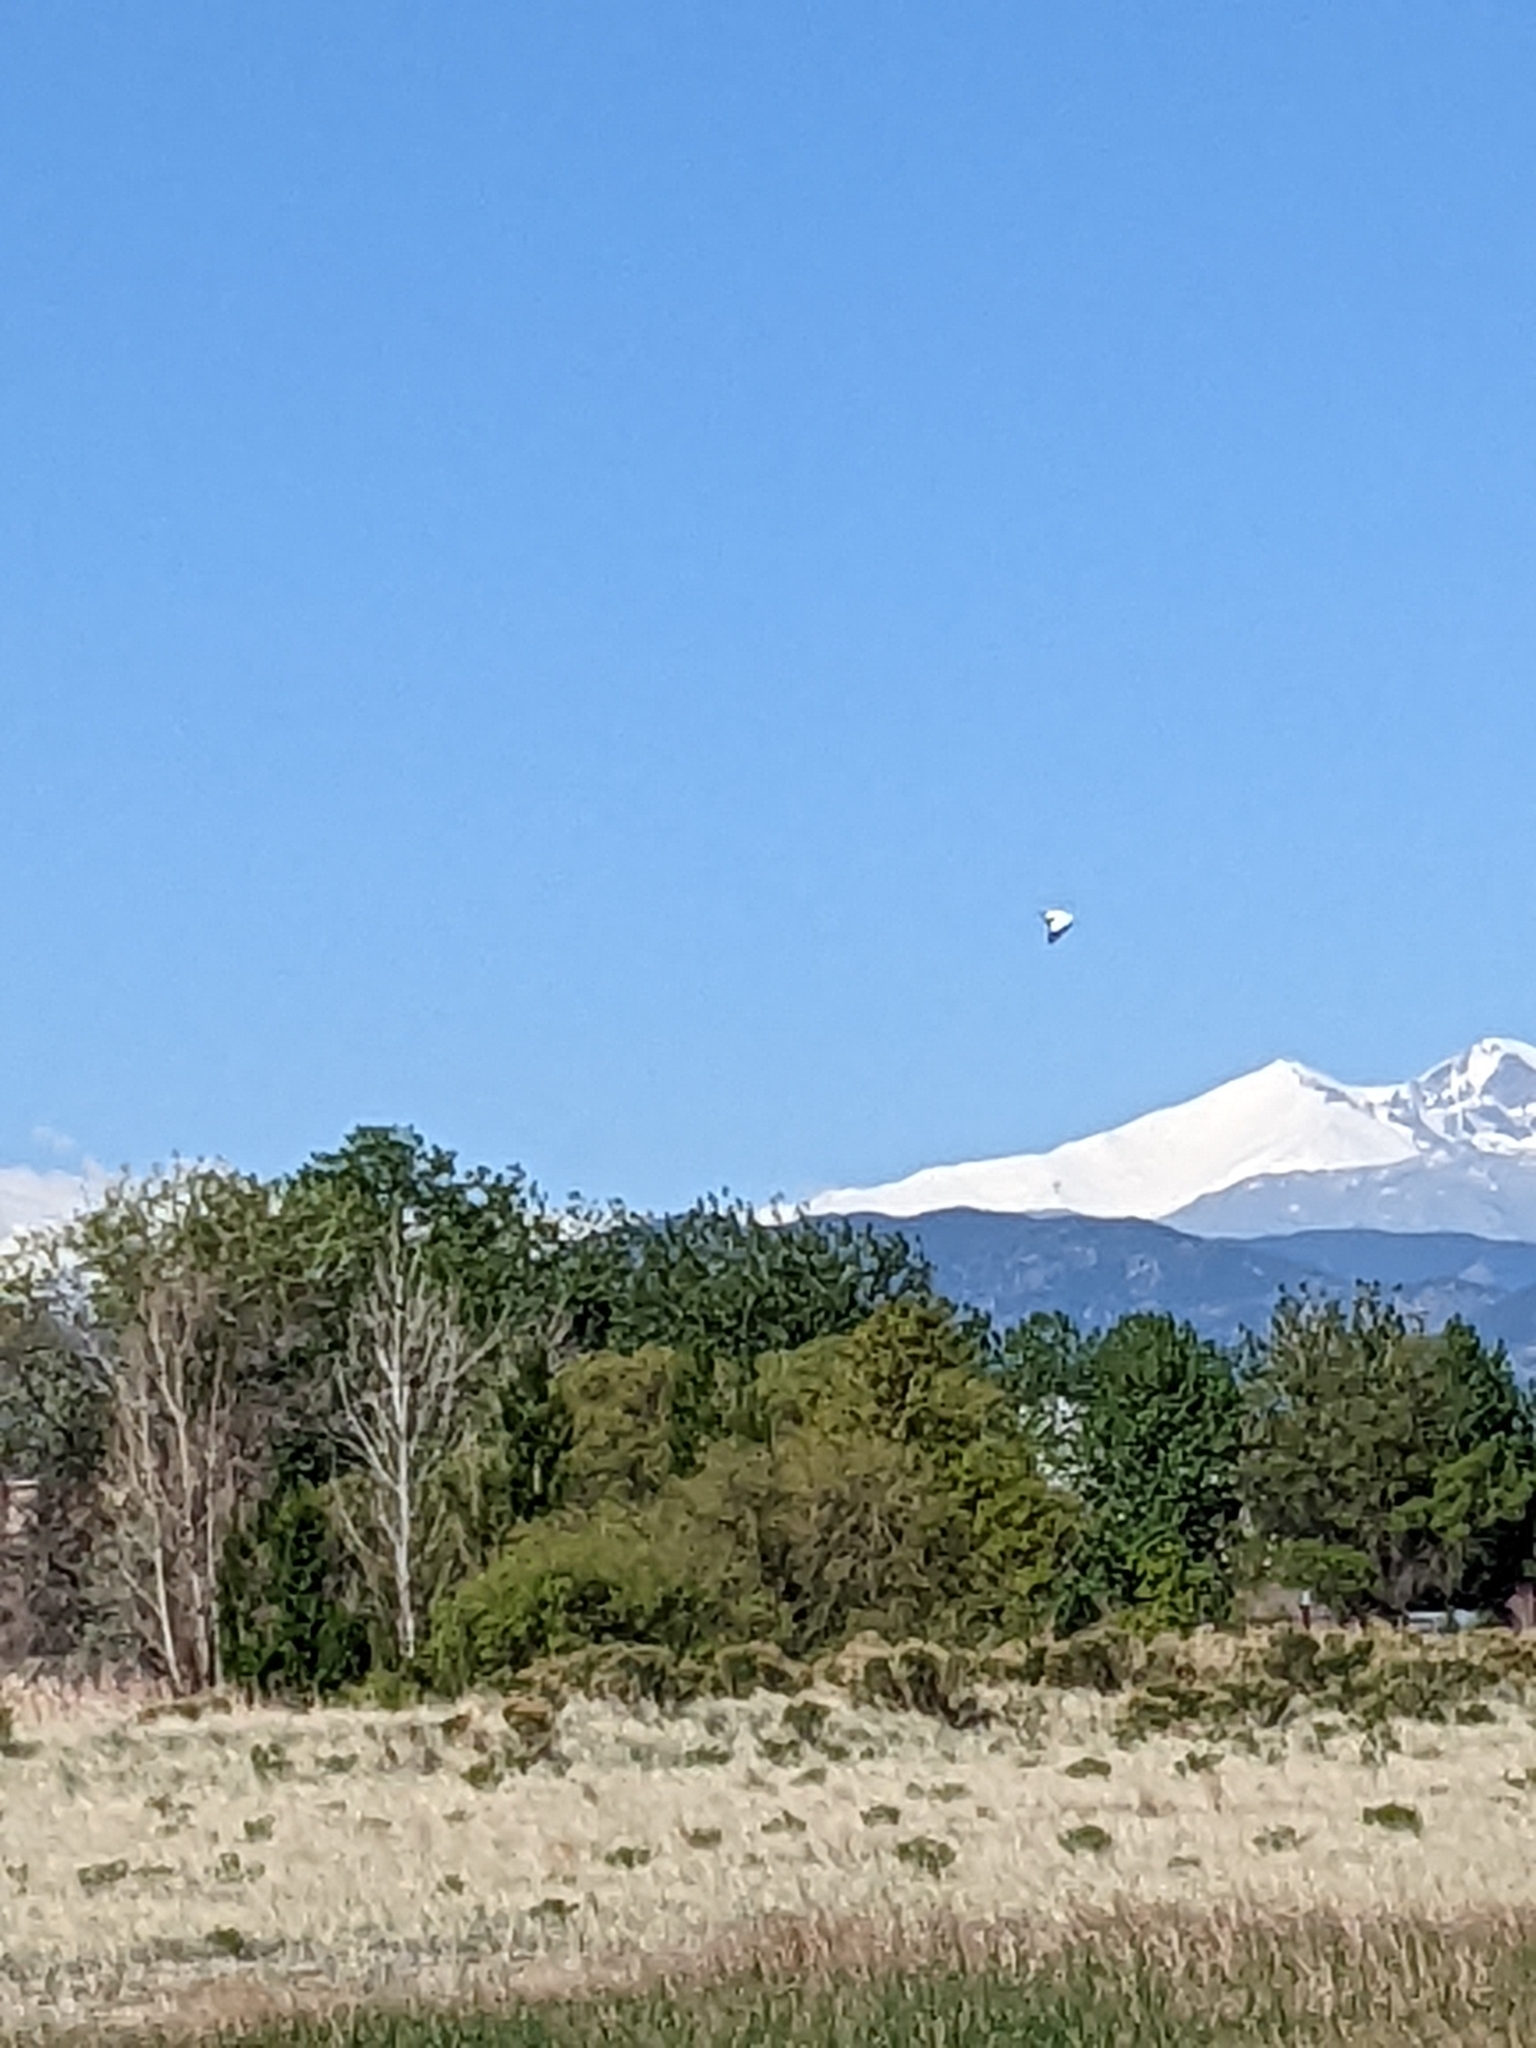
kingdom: Animalia
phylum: Chordata
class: Aves
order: Pelecaniformes
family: Pelecanidae
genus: Pelecanus
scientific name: Pelecanus erythrorhynchos
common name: American white pelican
